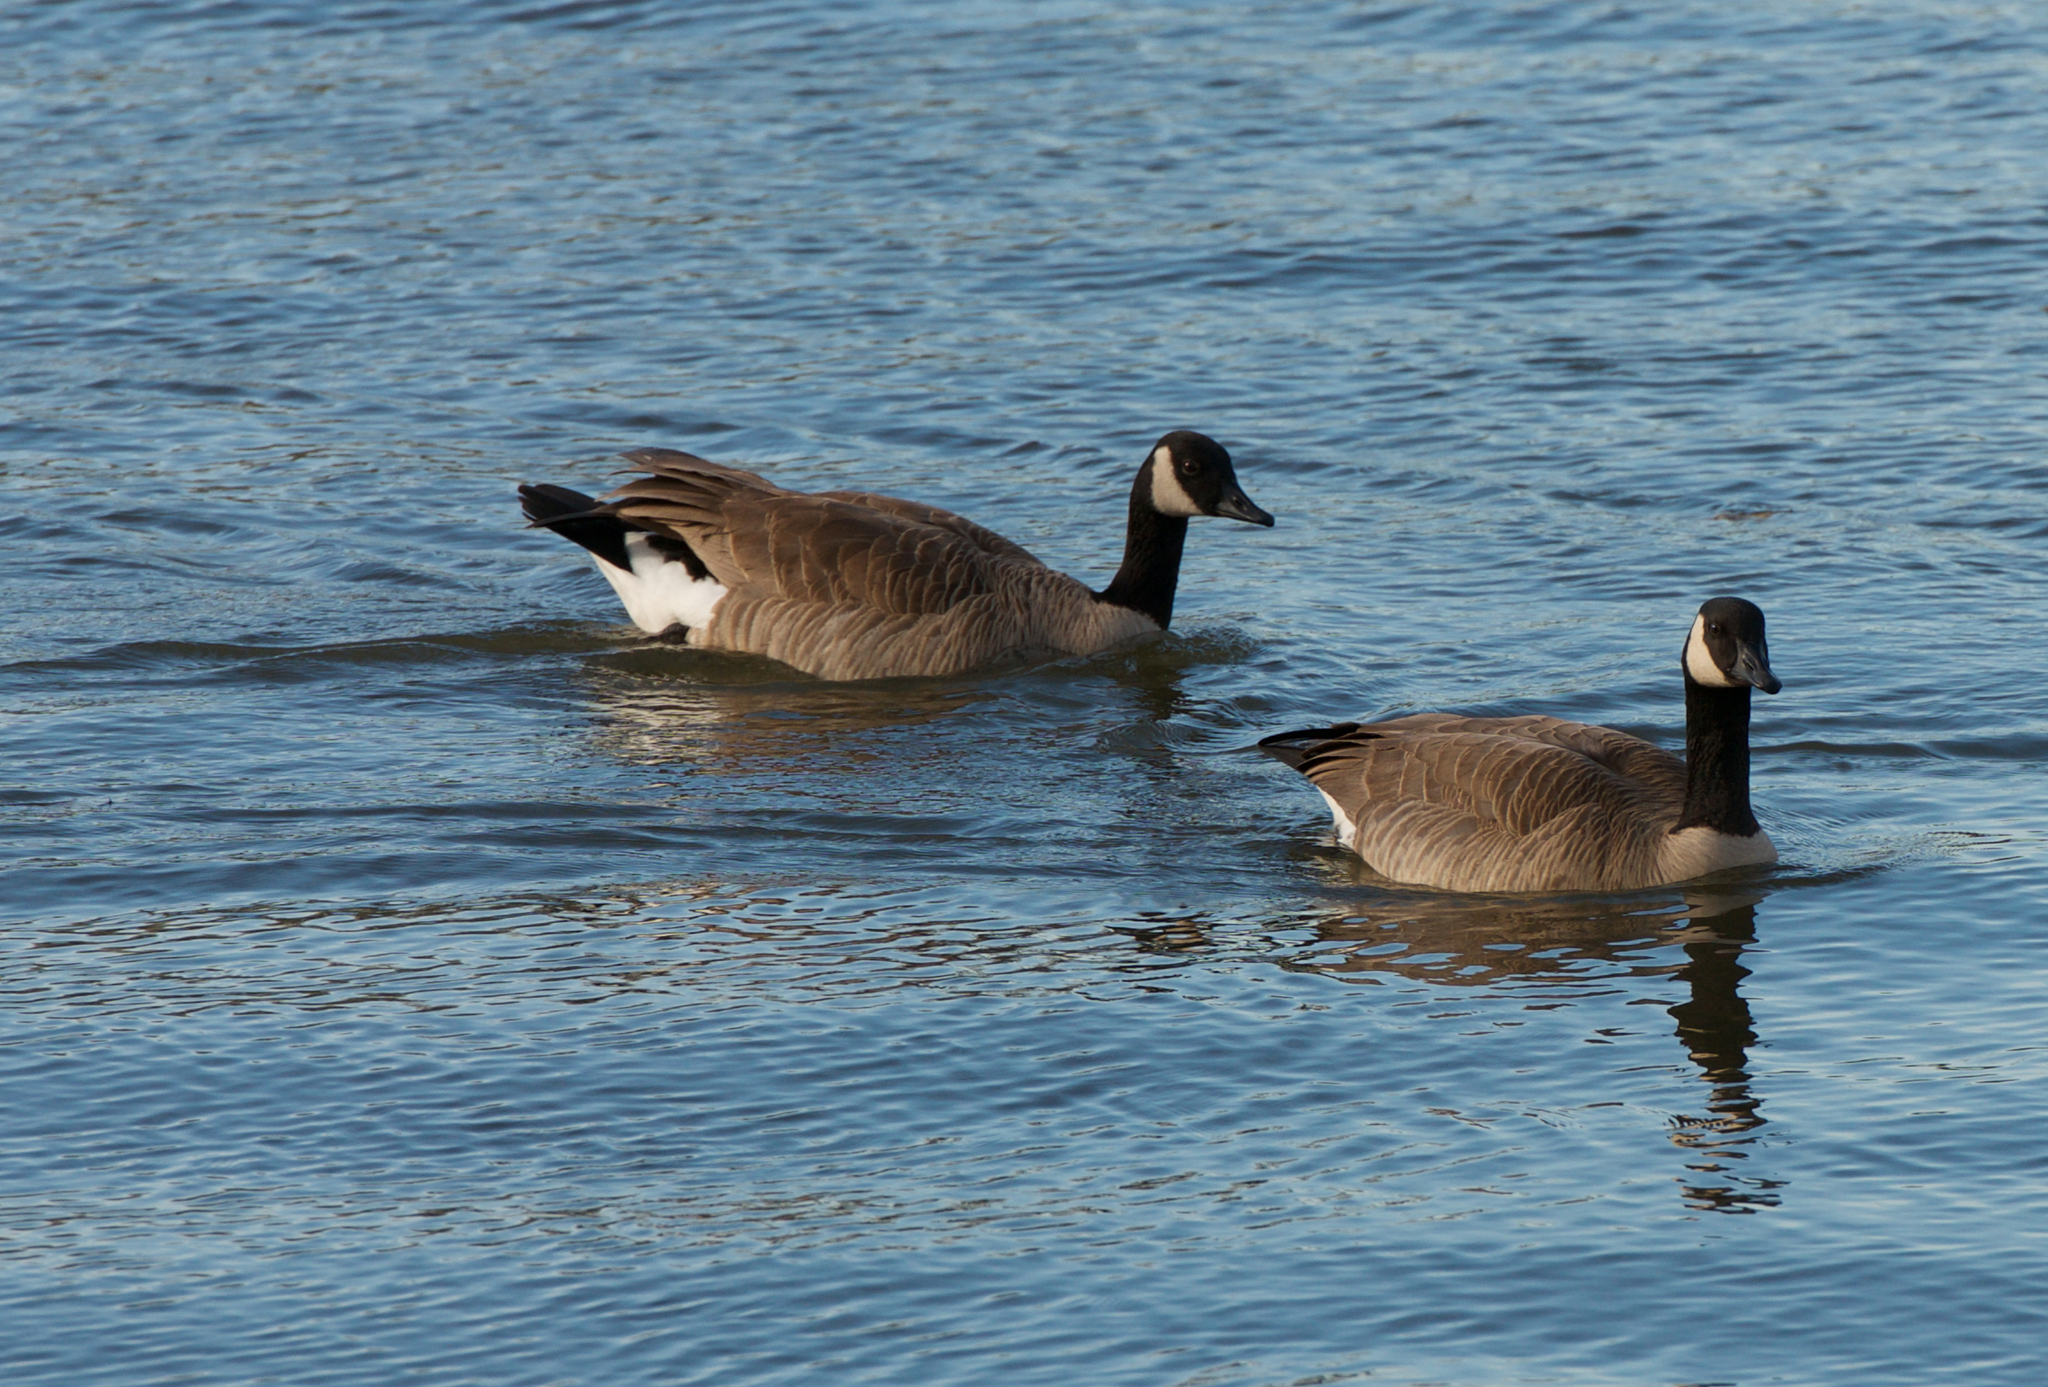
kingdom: Animalia
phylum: Chordata
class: Aves
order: Anseriformes
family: Anatidae
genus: Branta
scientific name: Branta canadensis
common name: Canada goose
